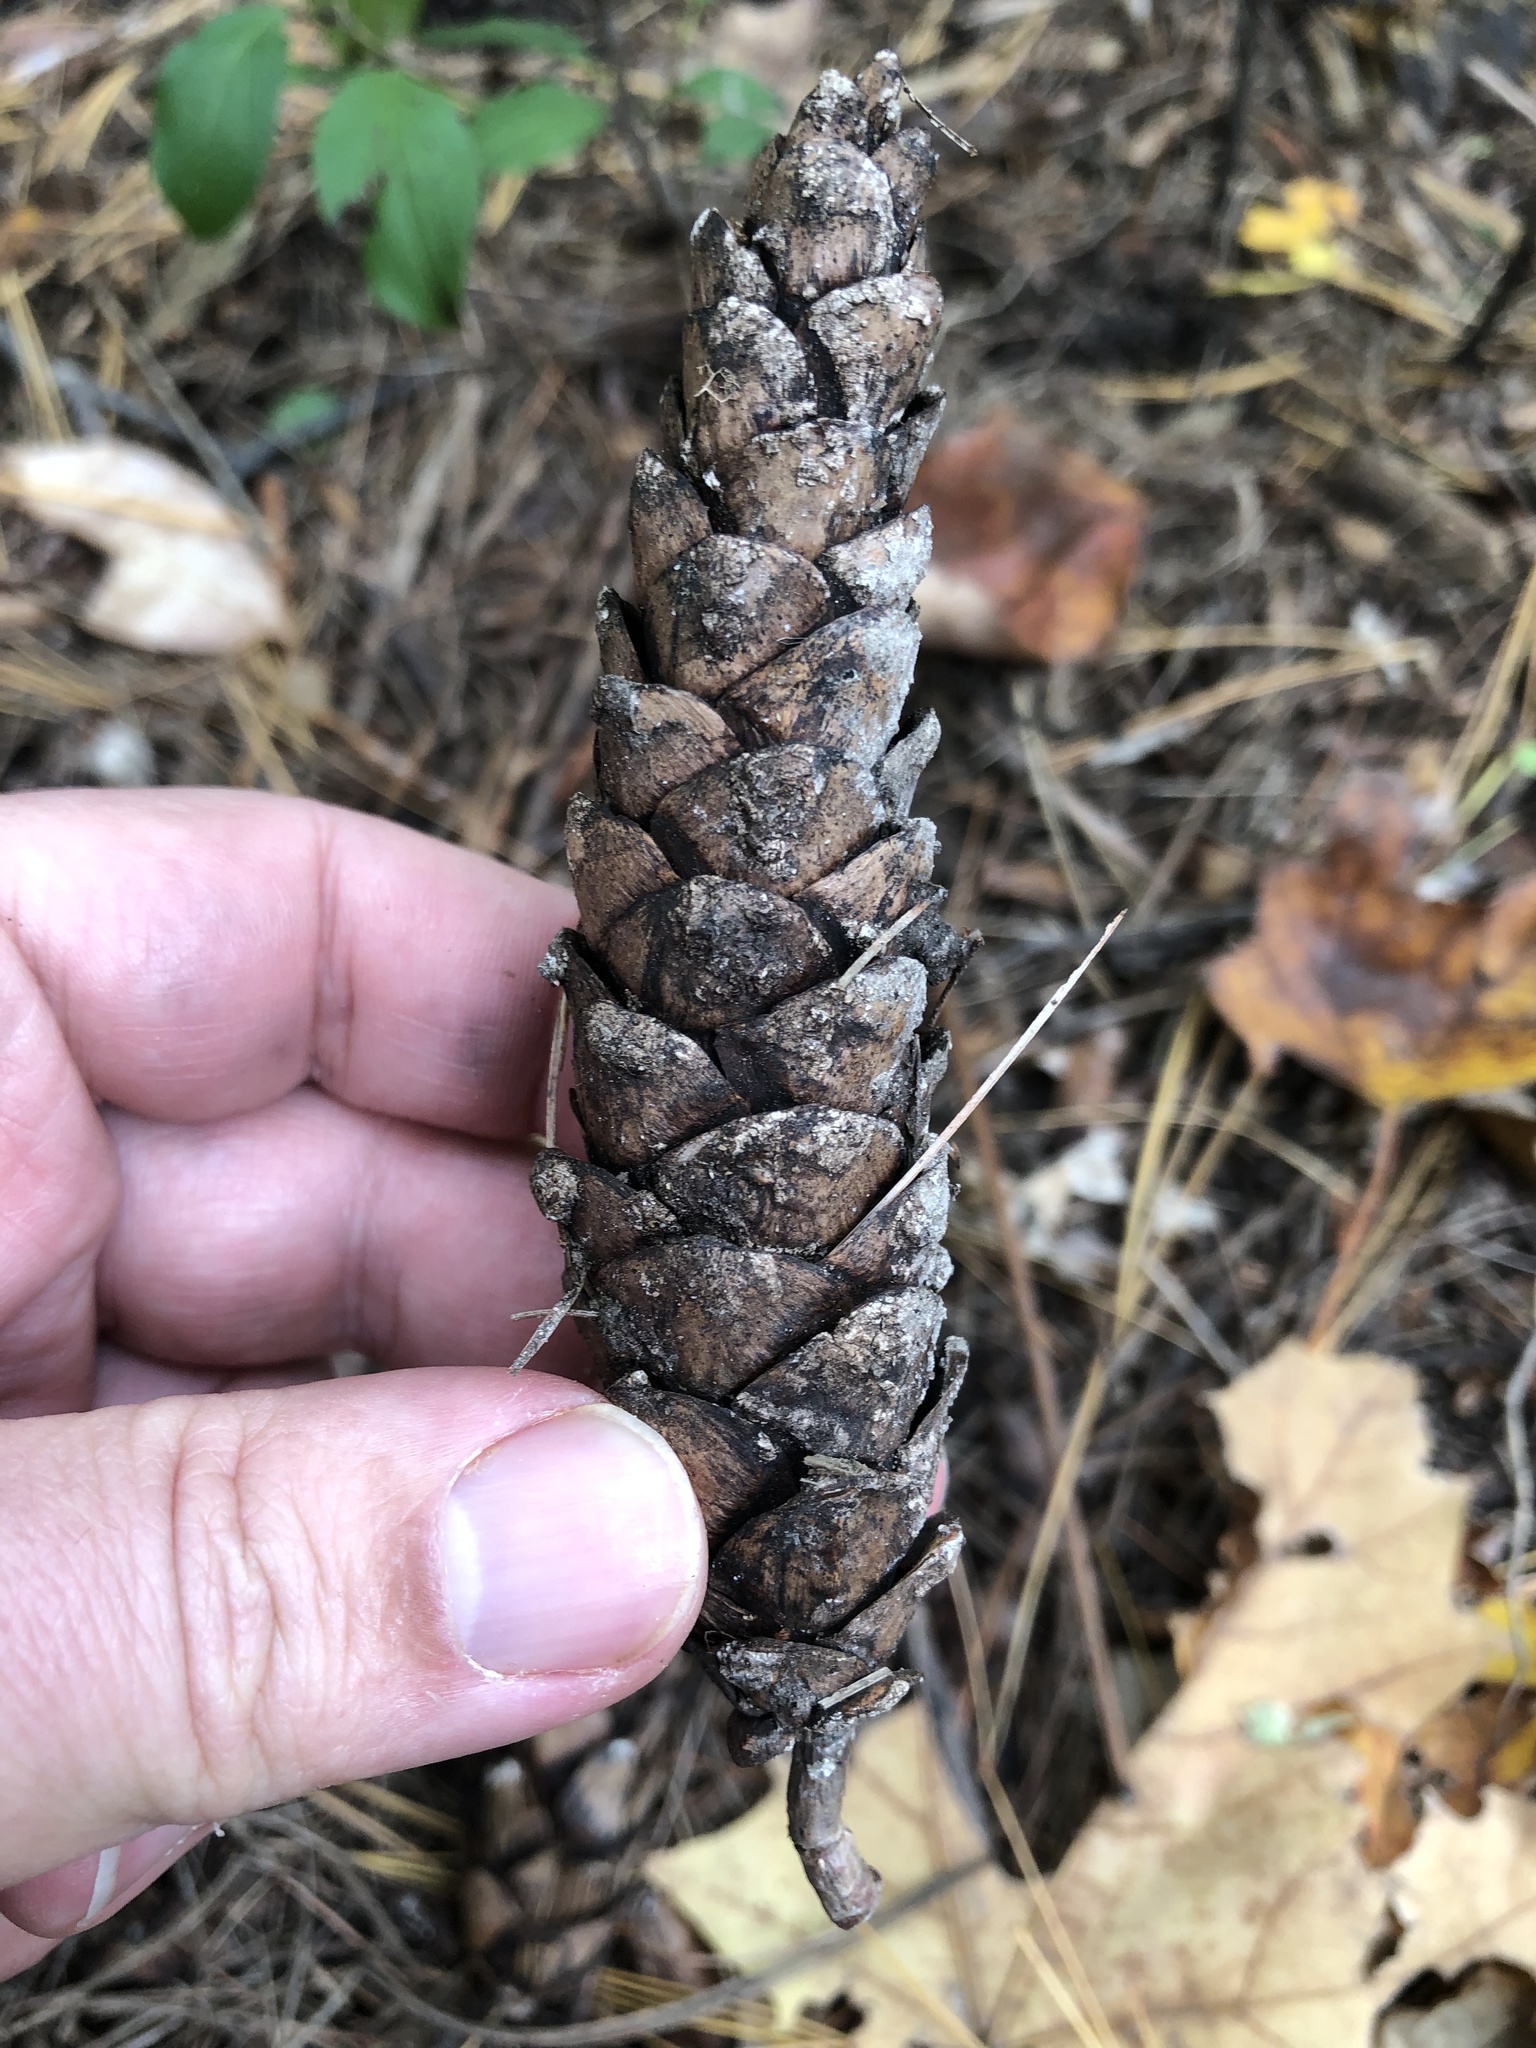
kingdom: Plantae
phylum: Tracheophyta
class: Pinopsida
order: Pinales
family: Pinaceae
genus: Pinus
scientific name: Pinus strobus
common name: Weymouth pine
